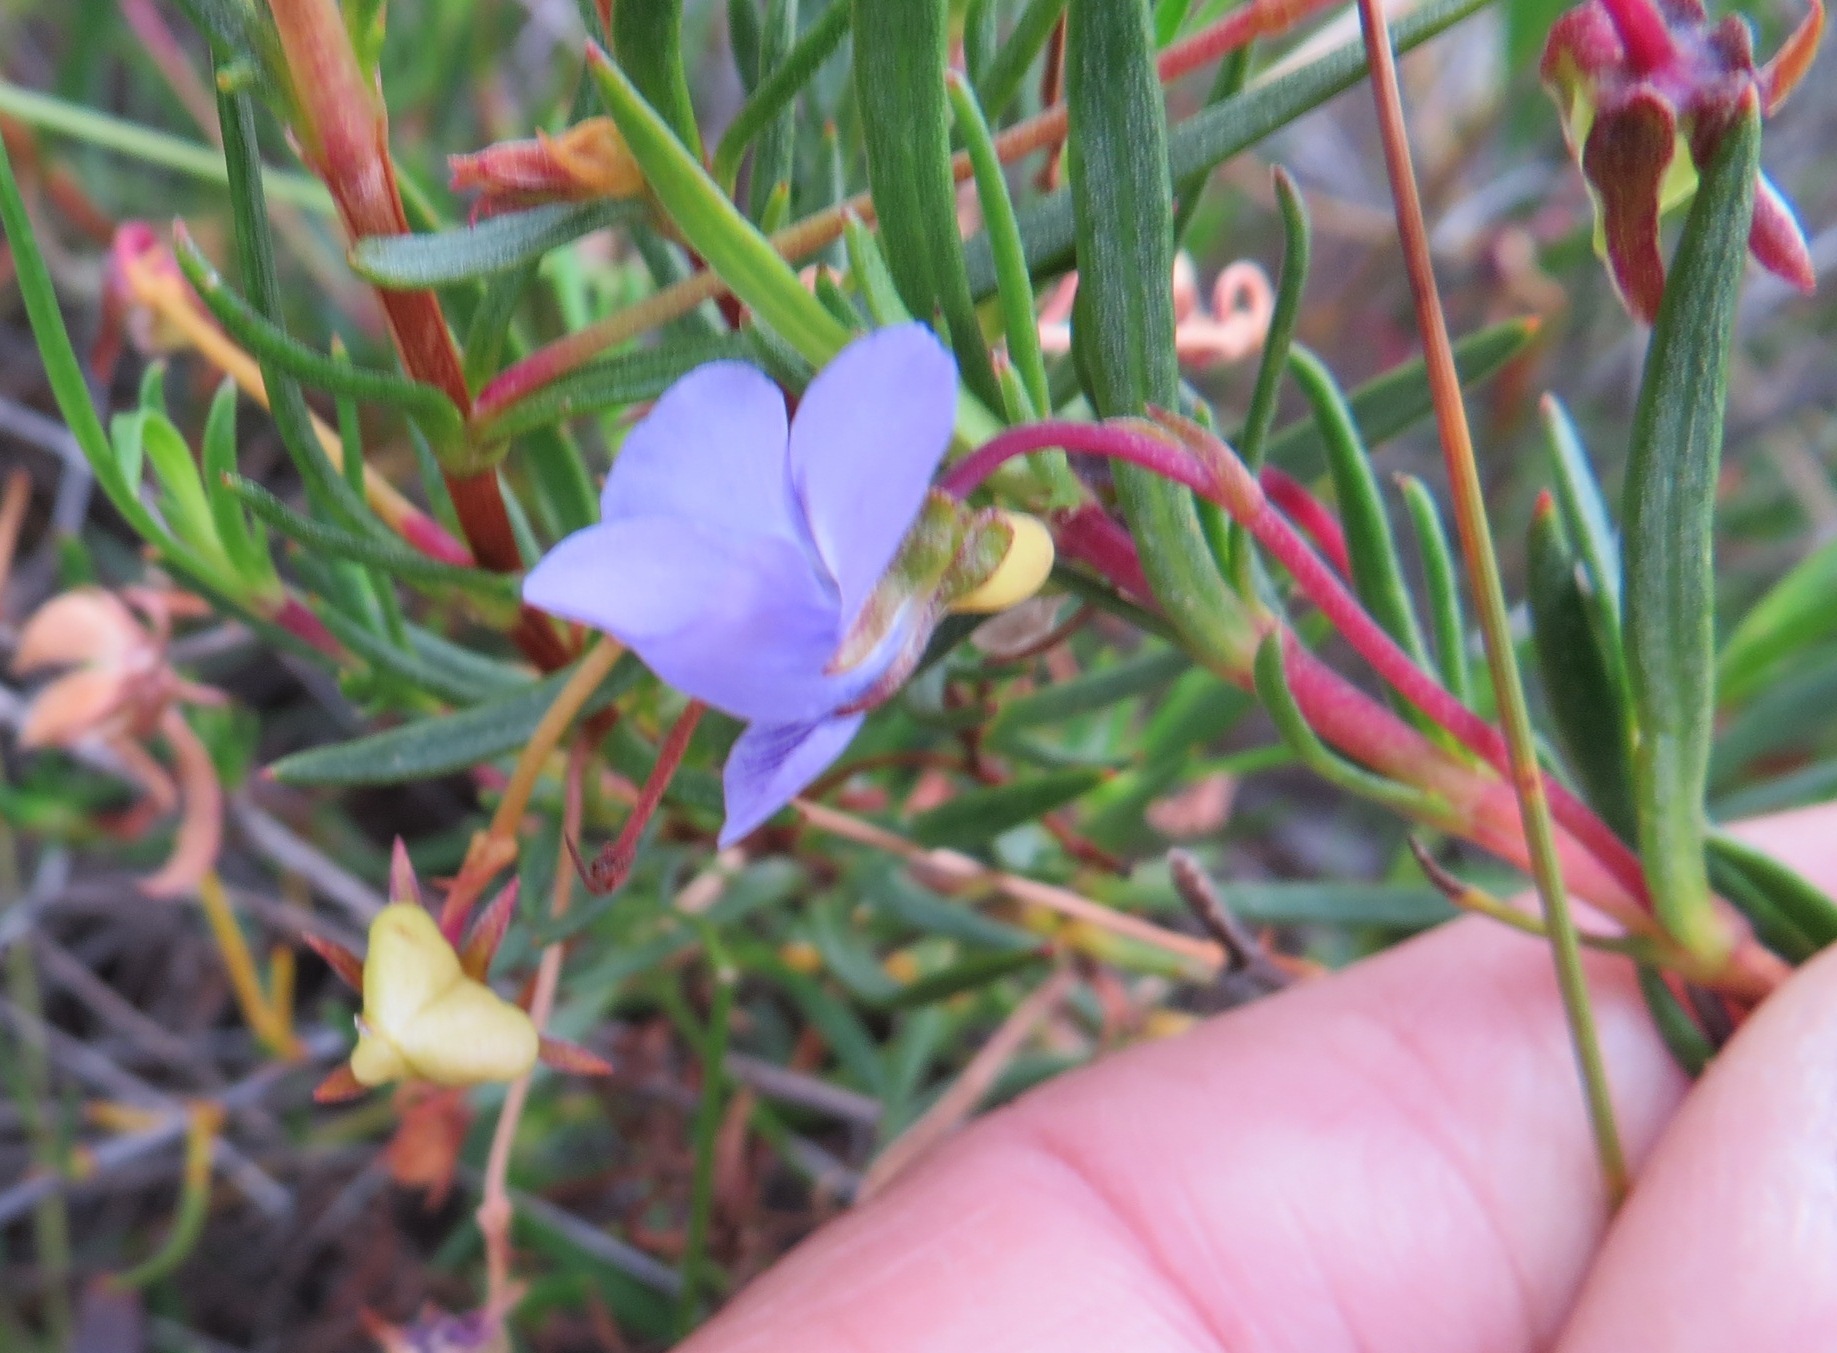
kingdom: Plantae
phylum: Tracheophyta
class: Magnoliopsida
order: Malpighiales
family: Violaceae
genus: Viola
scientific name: Viola decumbens
